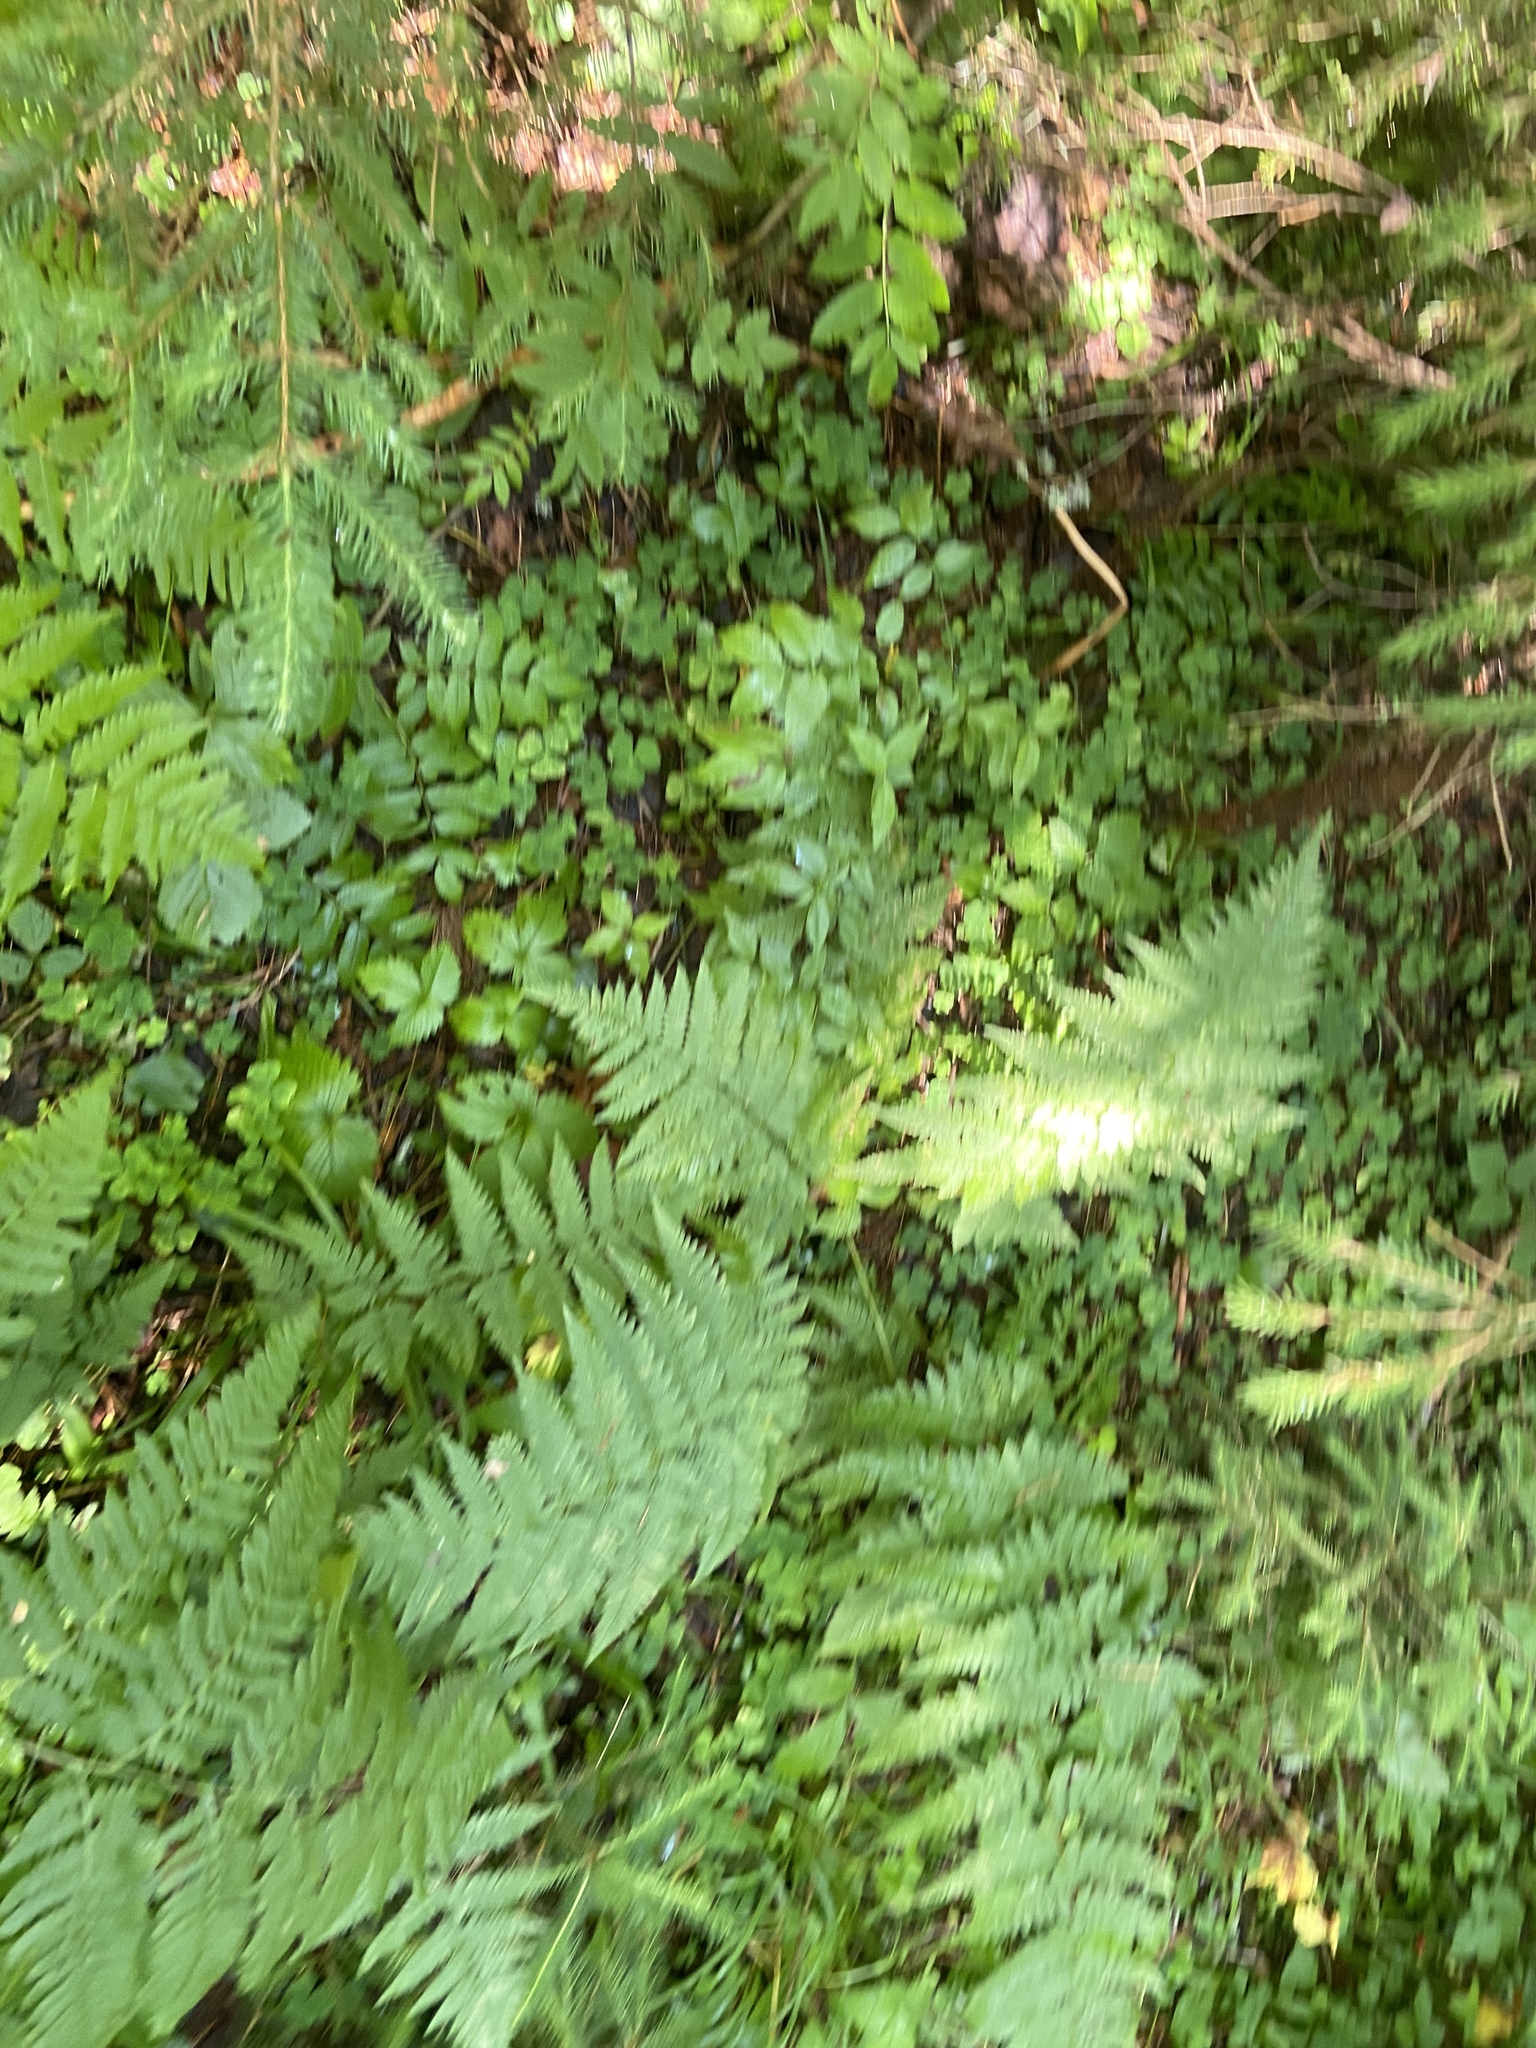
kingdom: Plantae
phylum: Tracheophyta
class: Polypodiopsida
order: Polypodiales
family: Dryopteridaceae
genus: Dryopteris
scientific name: Dryopteris carthusiana
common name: Narrow buckler-fern
